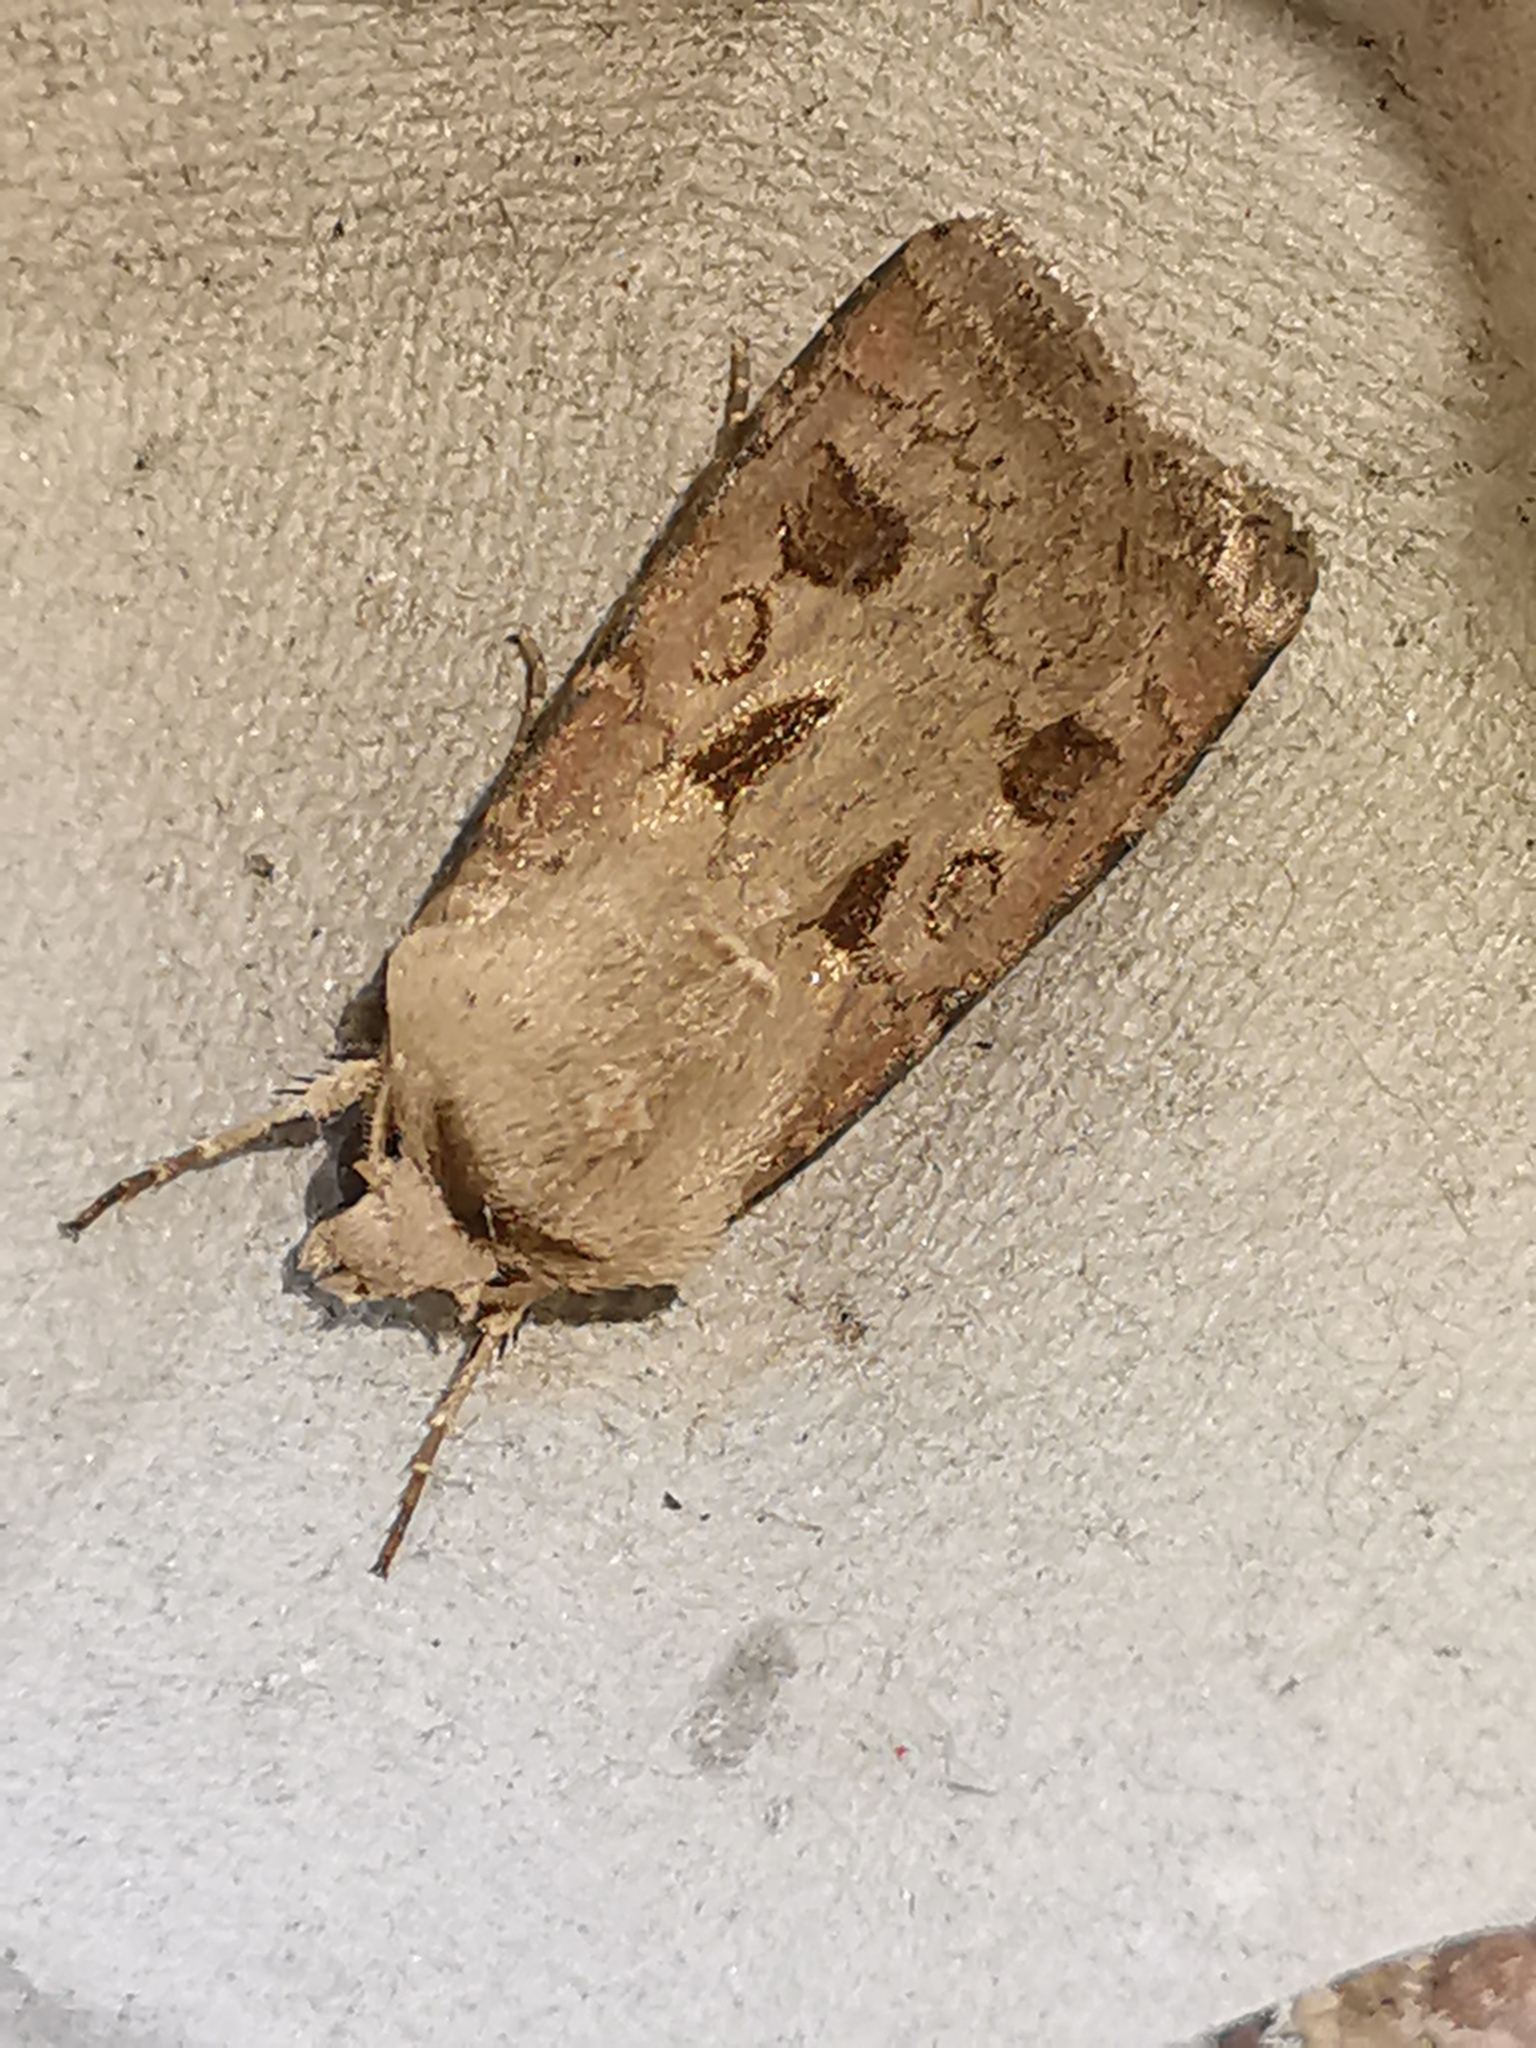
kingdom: Animalia
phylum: Arthropoda
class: Insecta
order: Lepidoptera
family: Noctuidae
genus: Agrotis
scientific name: Agrotis exclamationis
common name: Heart and dart
